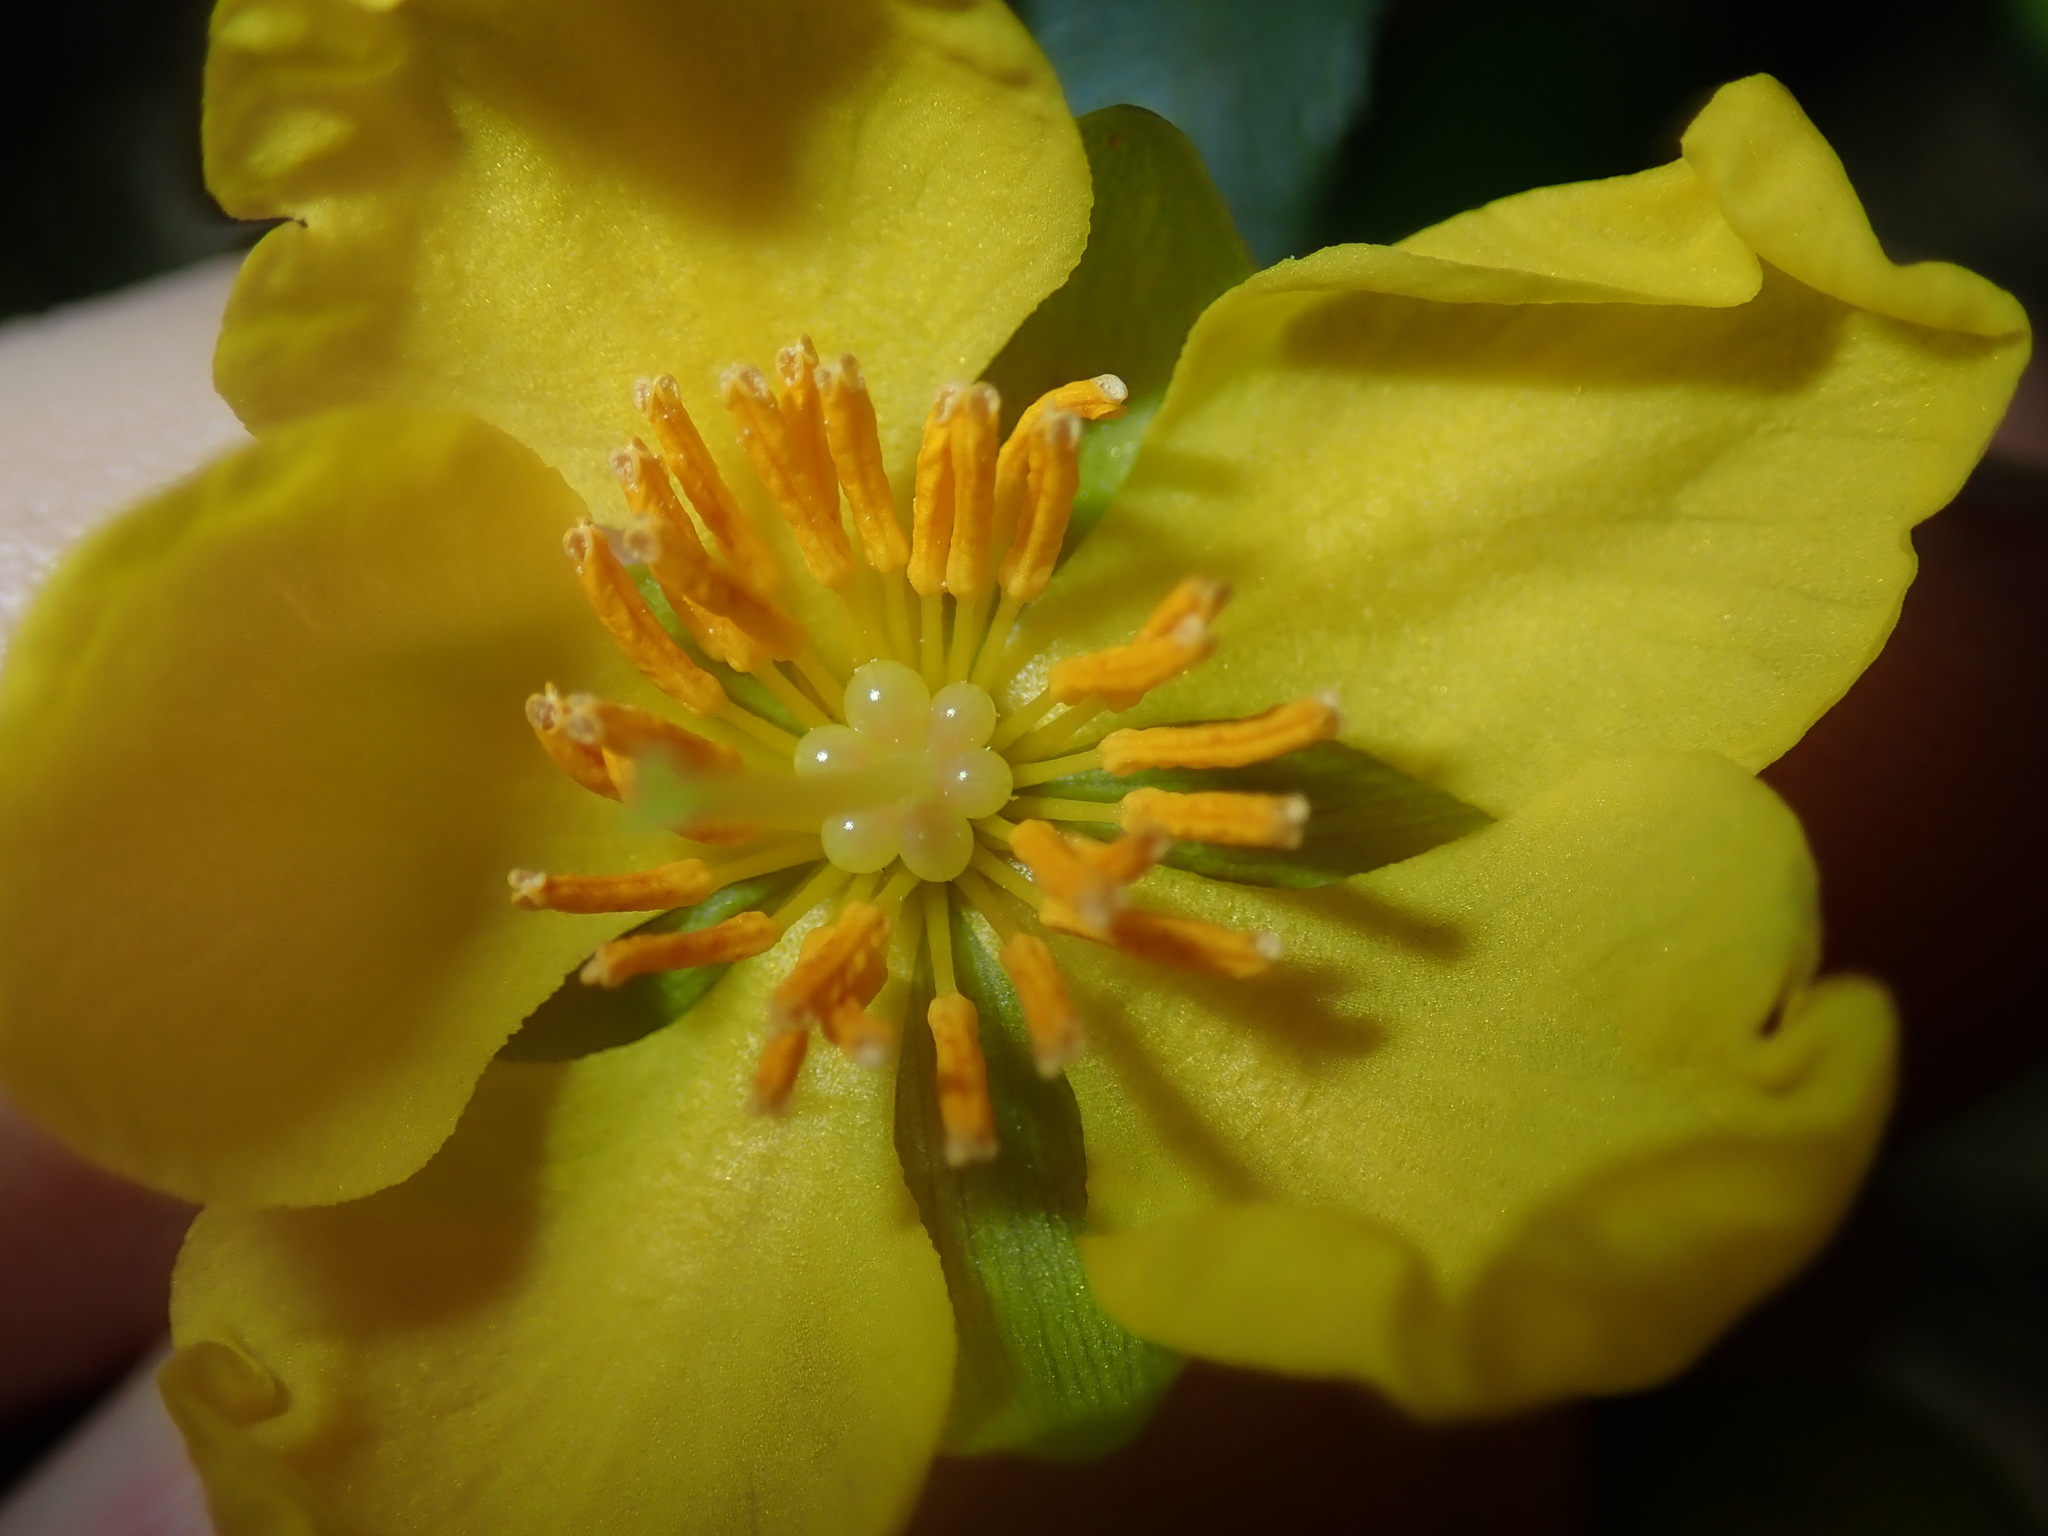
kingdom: Plantae
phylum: Tracheophyta
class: Magnoliopsida
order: Malpighiales
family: Ochnaceae
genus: Ochna
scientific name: Ochna serrulata
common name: Mickey mouse plant
